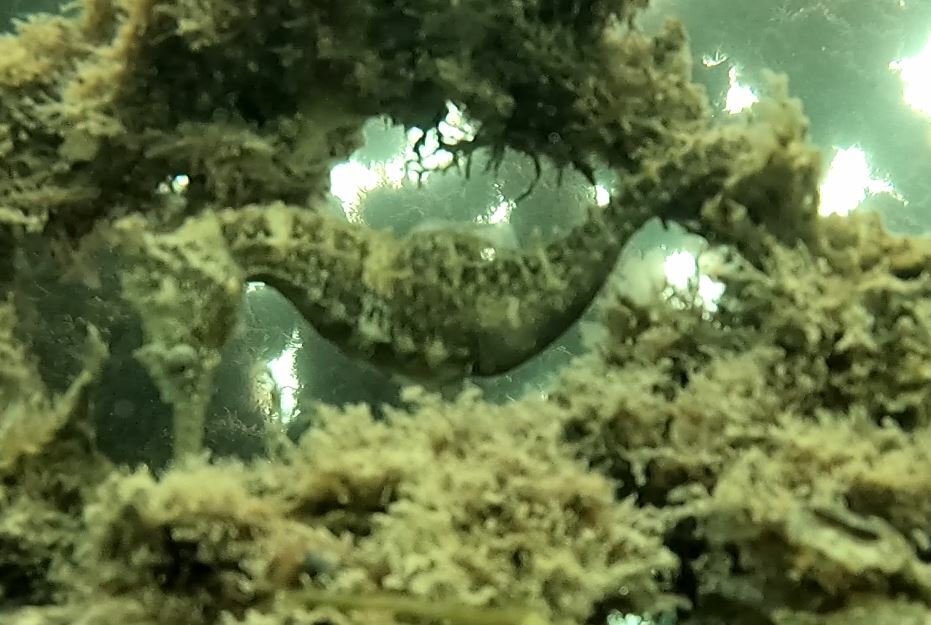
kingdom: Animalia
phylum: Chordata
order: Syngnathiformes
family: Syngnathidae
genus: Hippocampus
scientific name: Hippocampus whitei
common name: New holland seahorse
